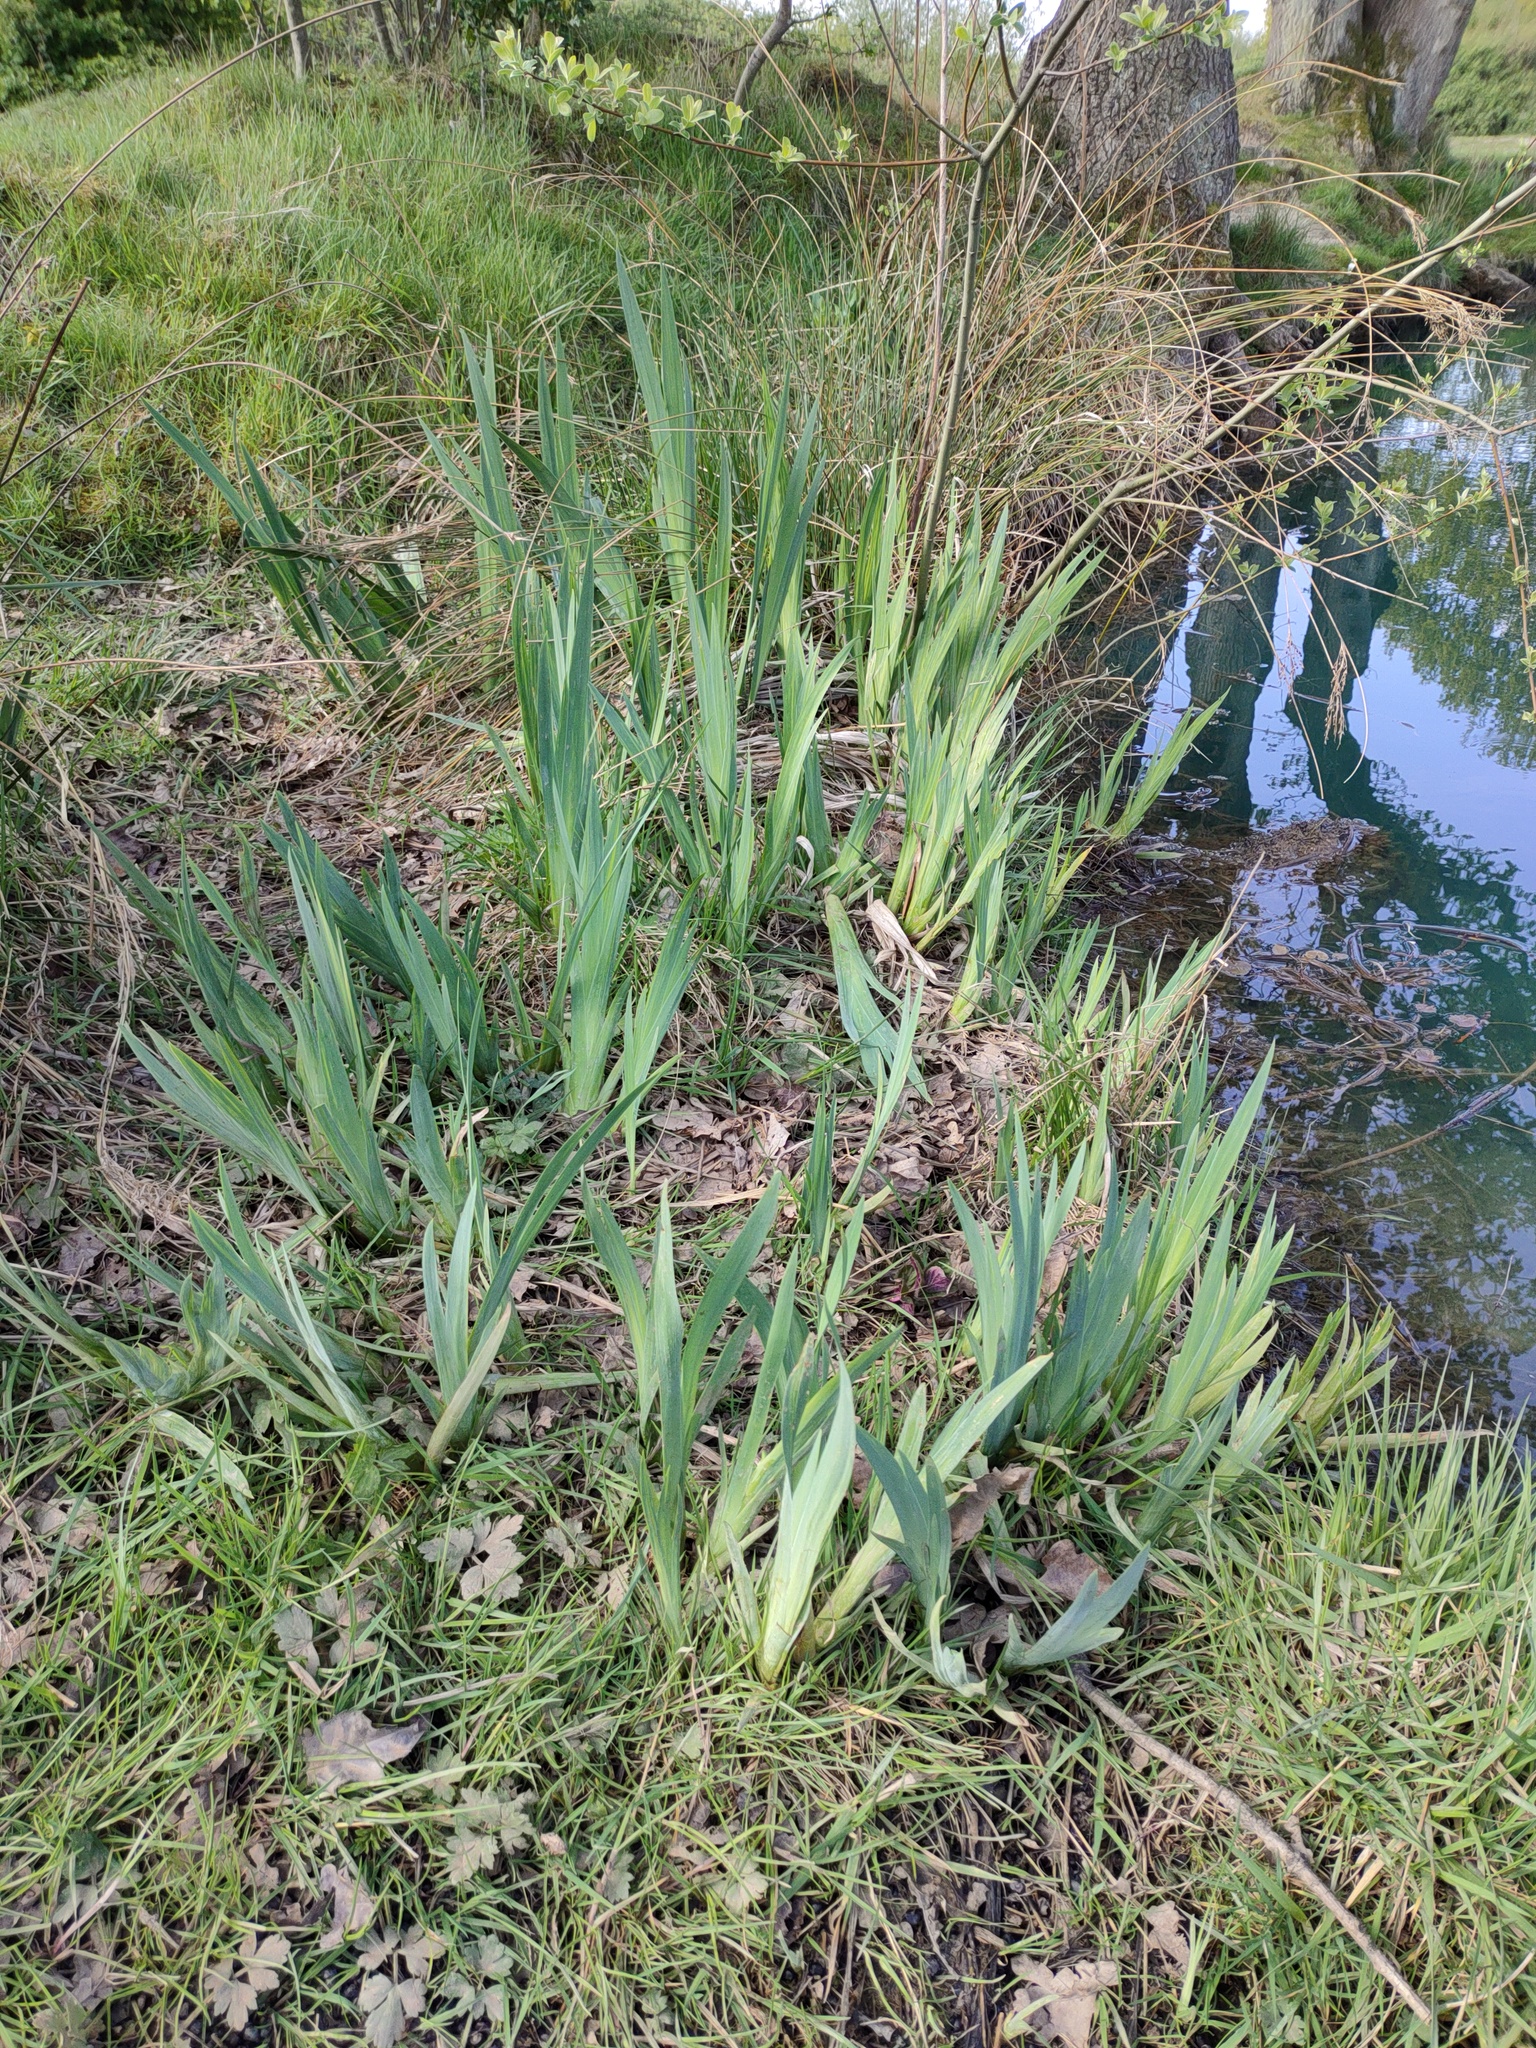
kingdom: Plantae
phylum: Tracheophyta
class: Liliopsida
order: Asparagales
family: Iridaceae
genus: Iris
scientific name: Iris pseudacorus
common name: Yellow flag
